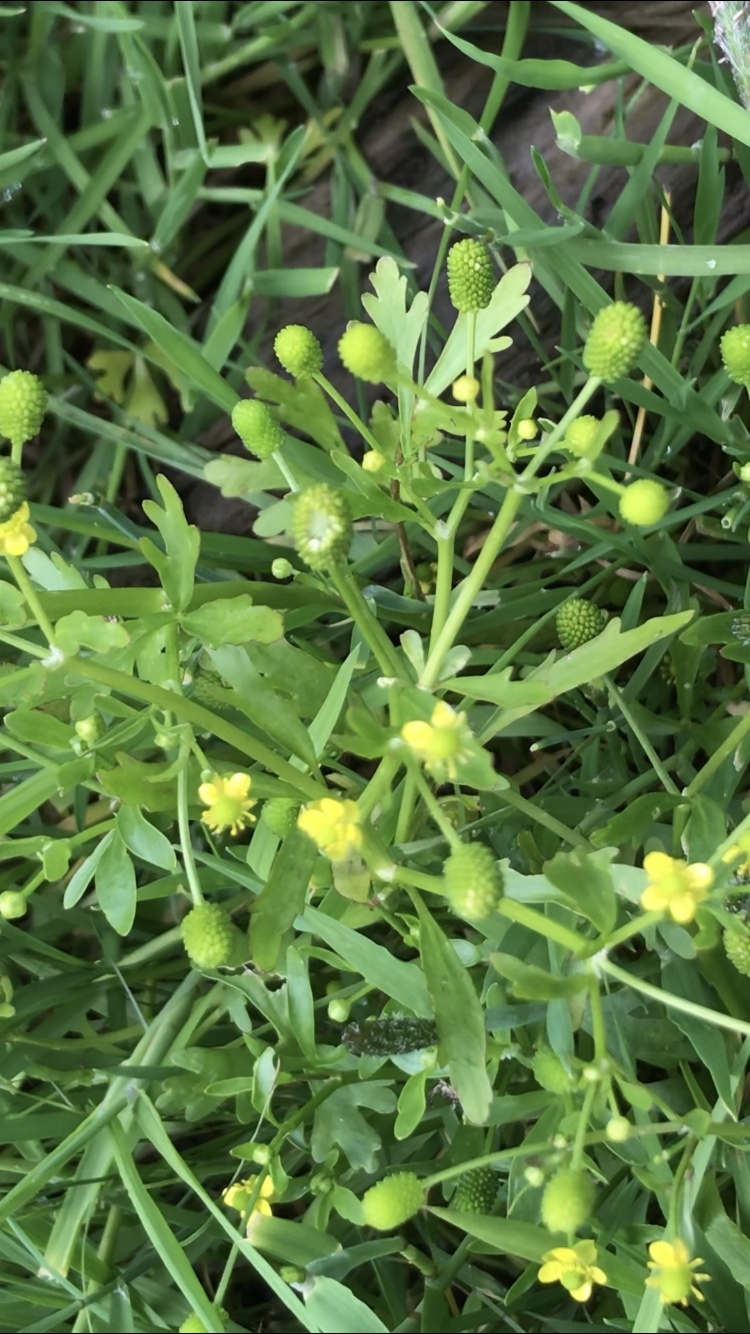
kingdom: Plantae
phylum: Tracheophyta
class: Magnoliopsida
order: Ranunculales
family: Ranunculaceae
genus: Ranunculus
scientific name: Ranunculus sceleratus
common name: Celery-leaved buttercup
